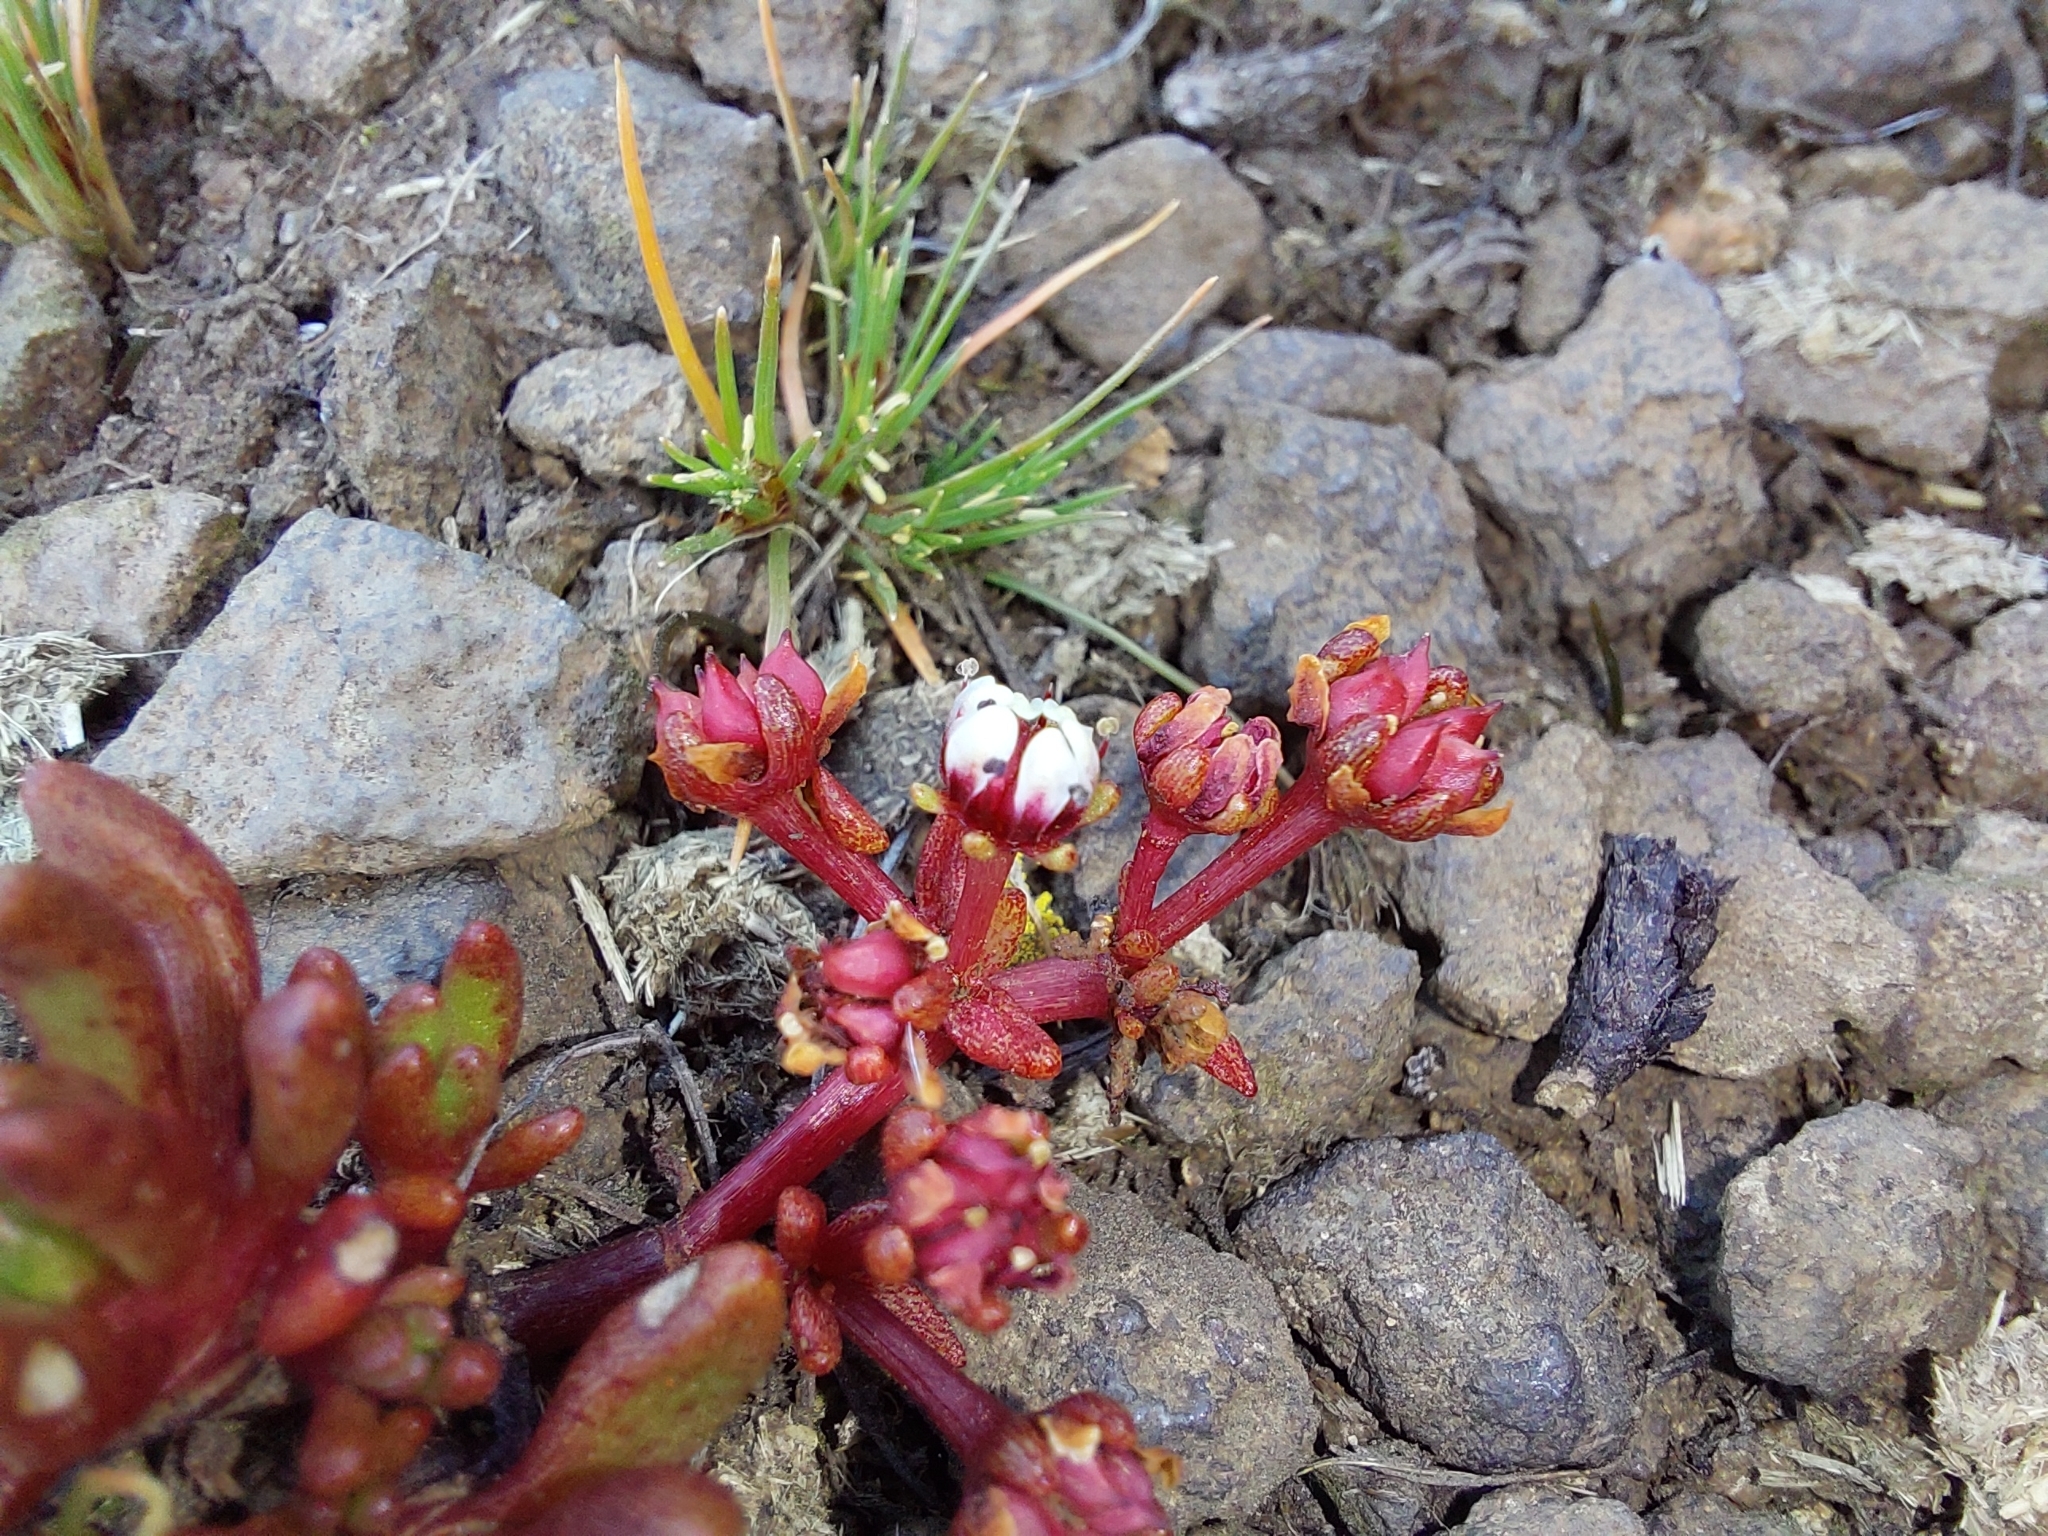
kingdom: Plantae
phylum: Tracheophyta
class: Magnoliopsida
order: Saxifragales
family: Crassulaceae
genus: Crassula
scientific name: Crassula peploides
